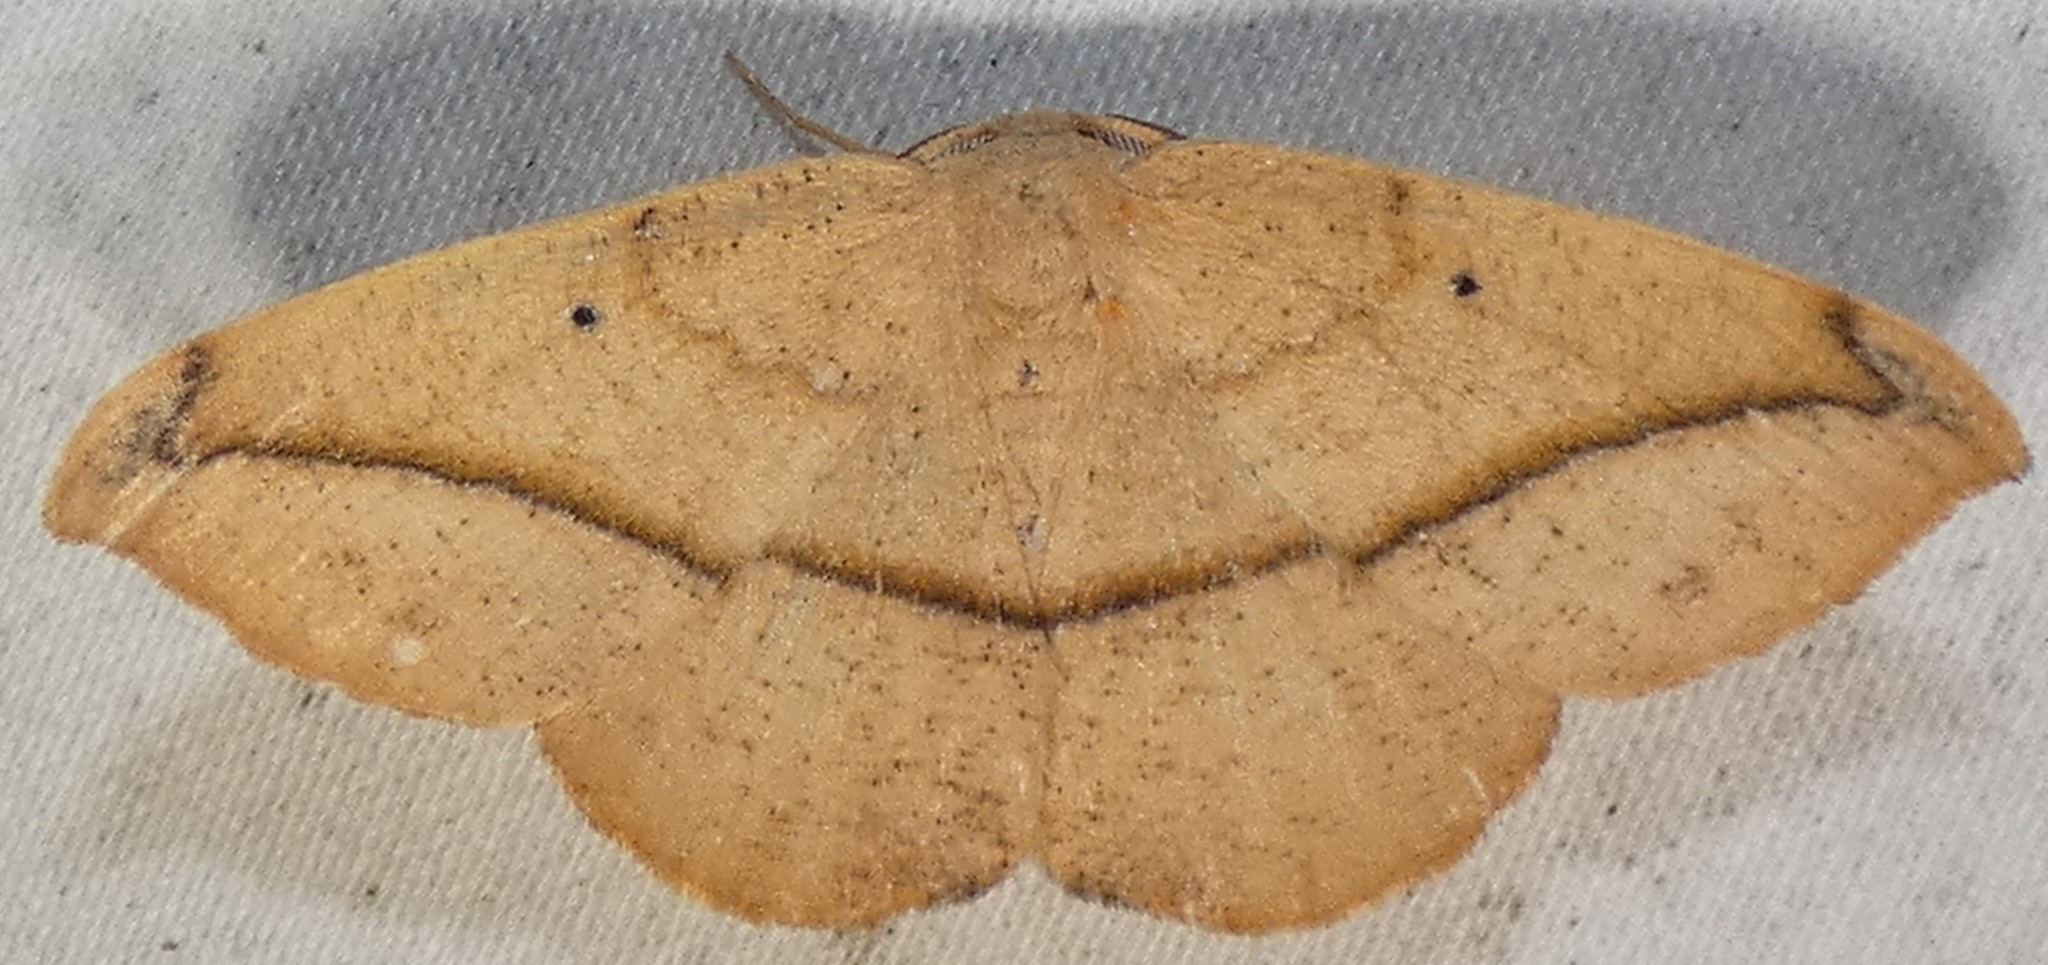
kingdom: Animalia
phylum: Arthropoda
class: Insecta
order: Lepidoptera
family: Geometridae
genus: Patalene
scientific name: Patalene olyzonaria
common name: Juniper geometer moth
